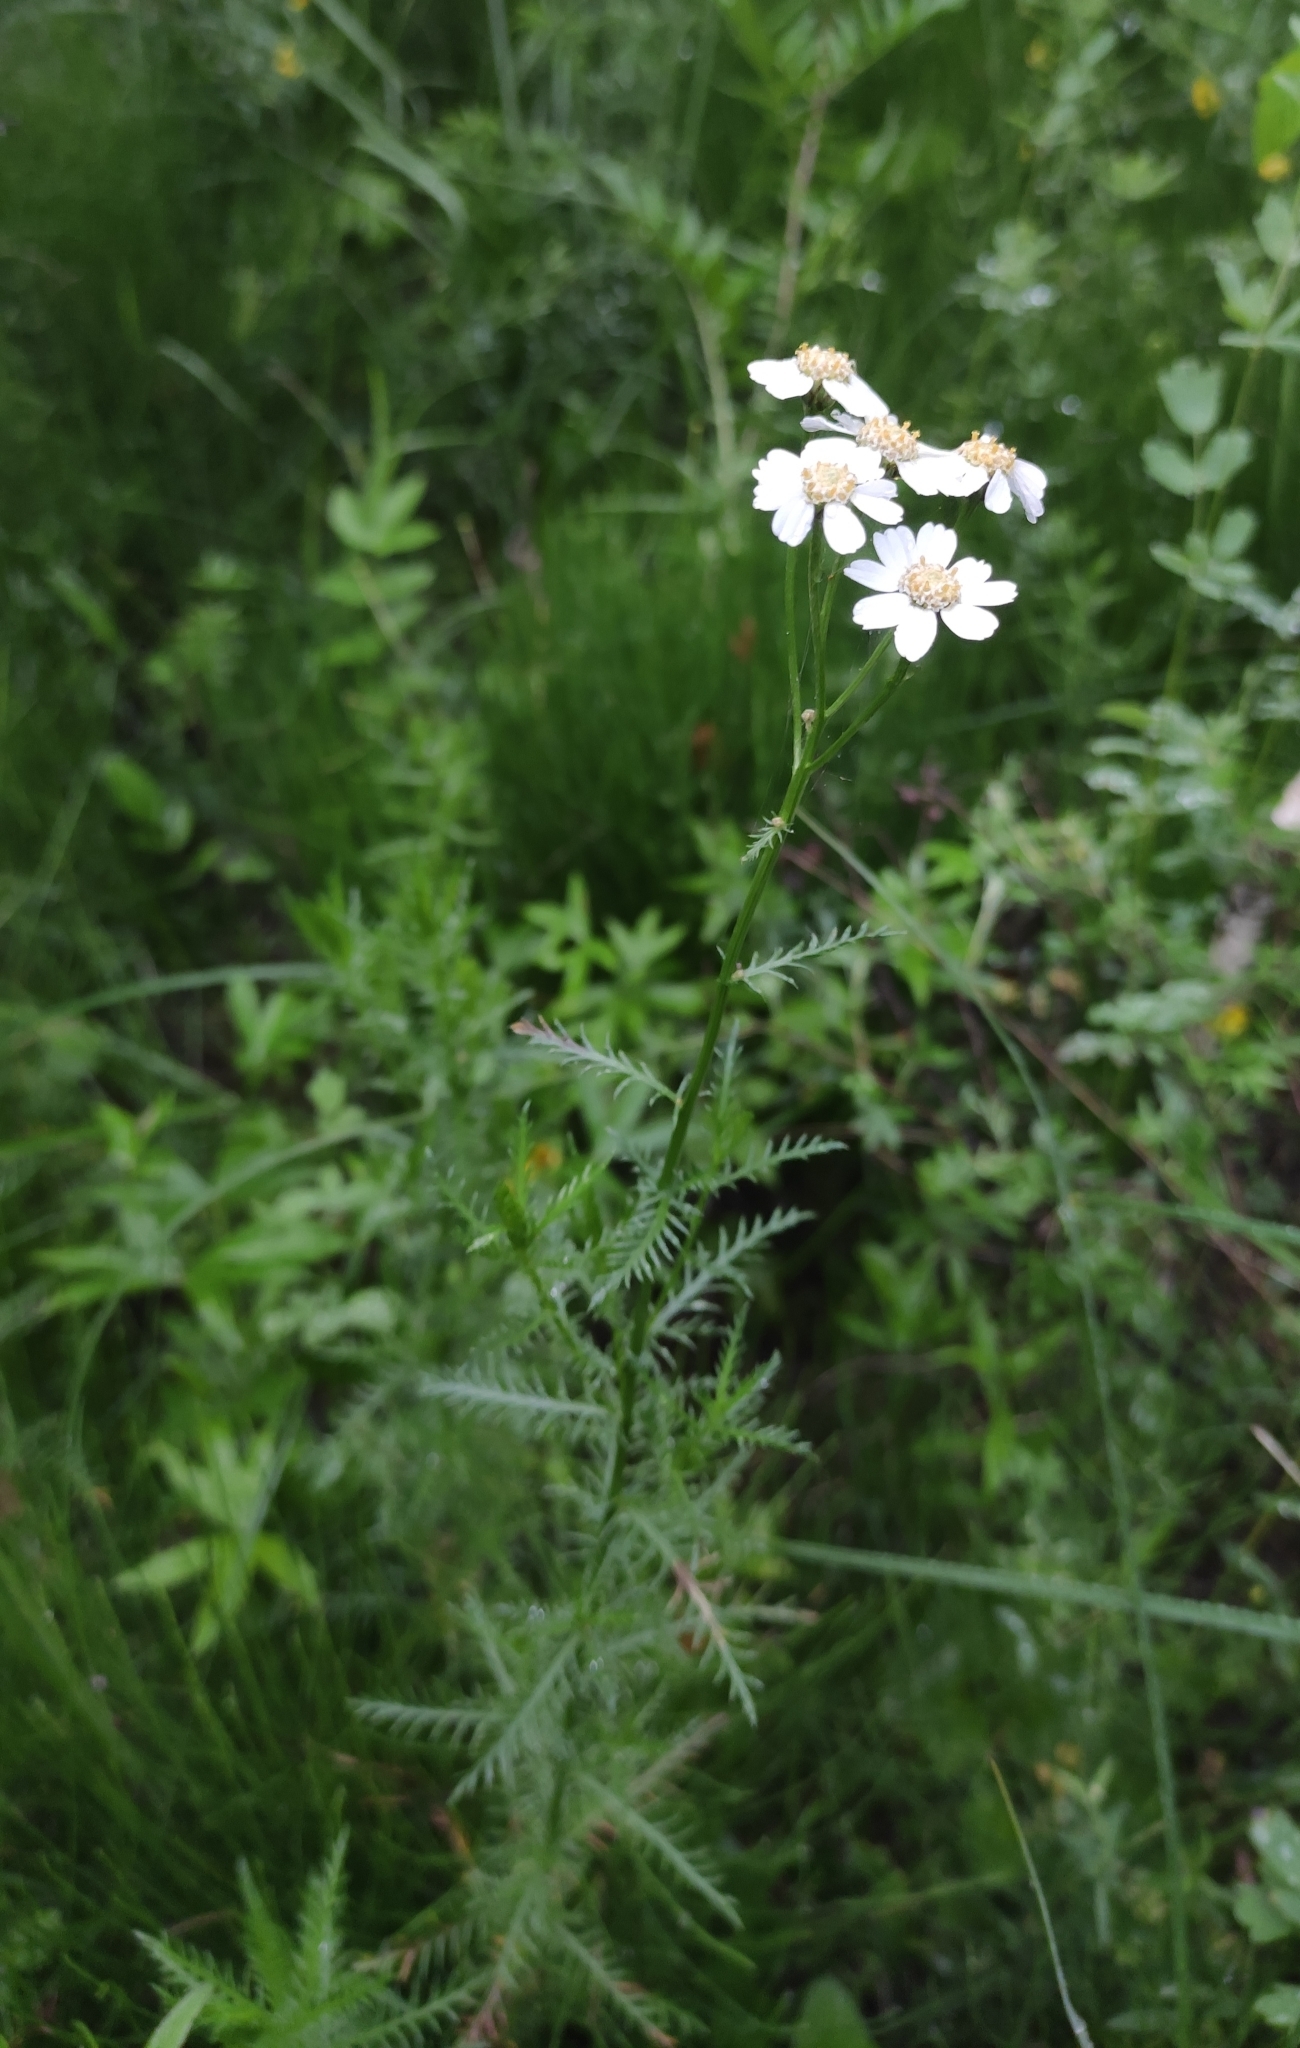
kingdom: Plantae
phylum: Tracheophyta
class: Magnoliopsida
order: Asterales
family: Asteraceae
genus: Achillea
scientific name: Achillea impatiens
